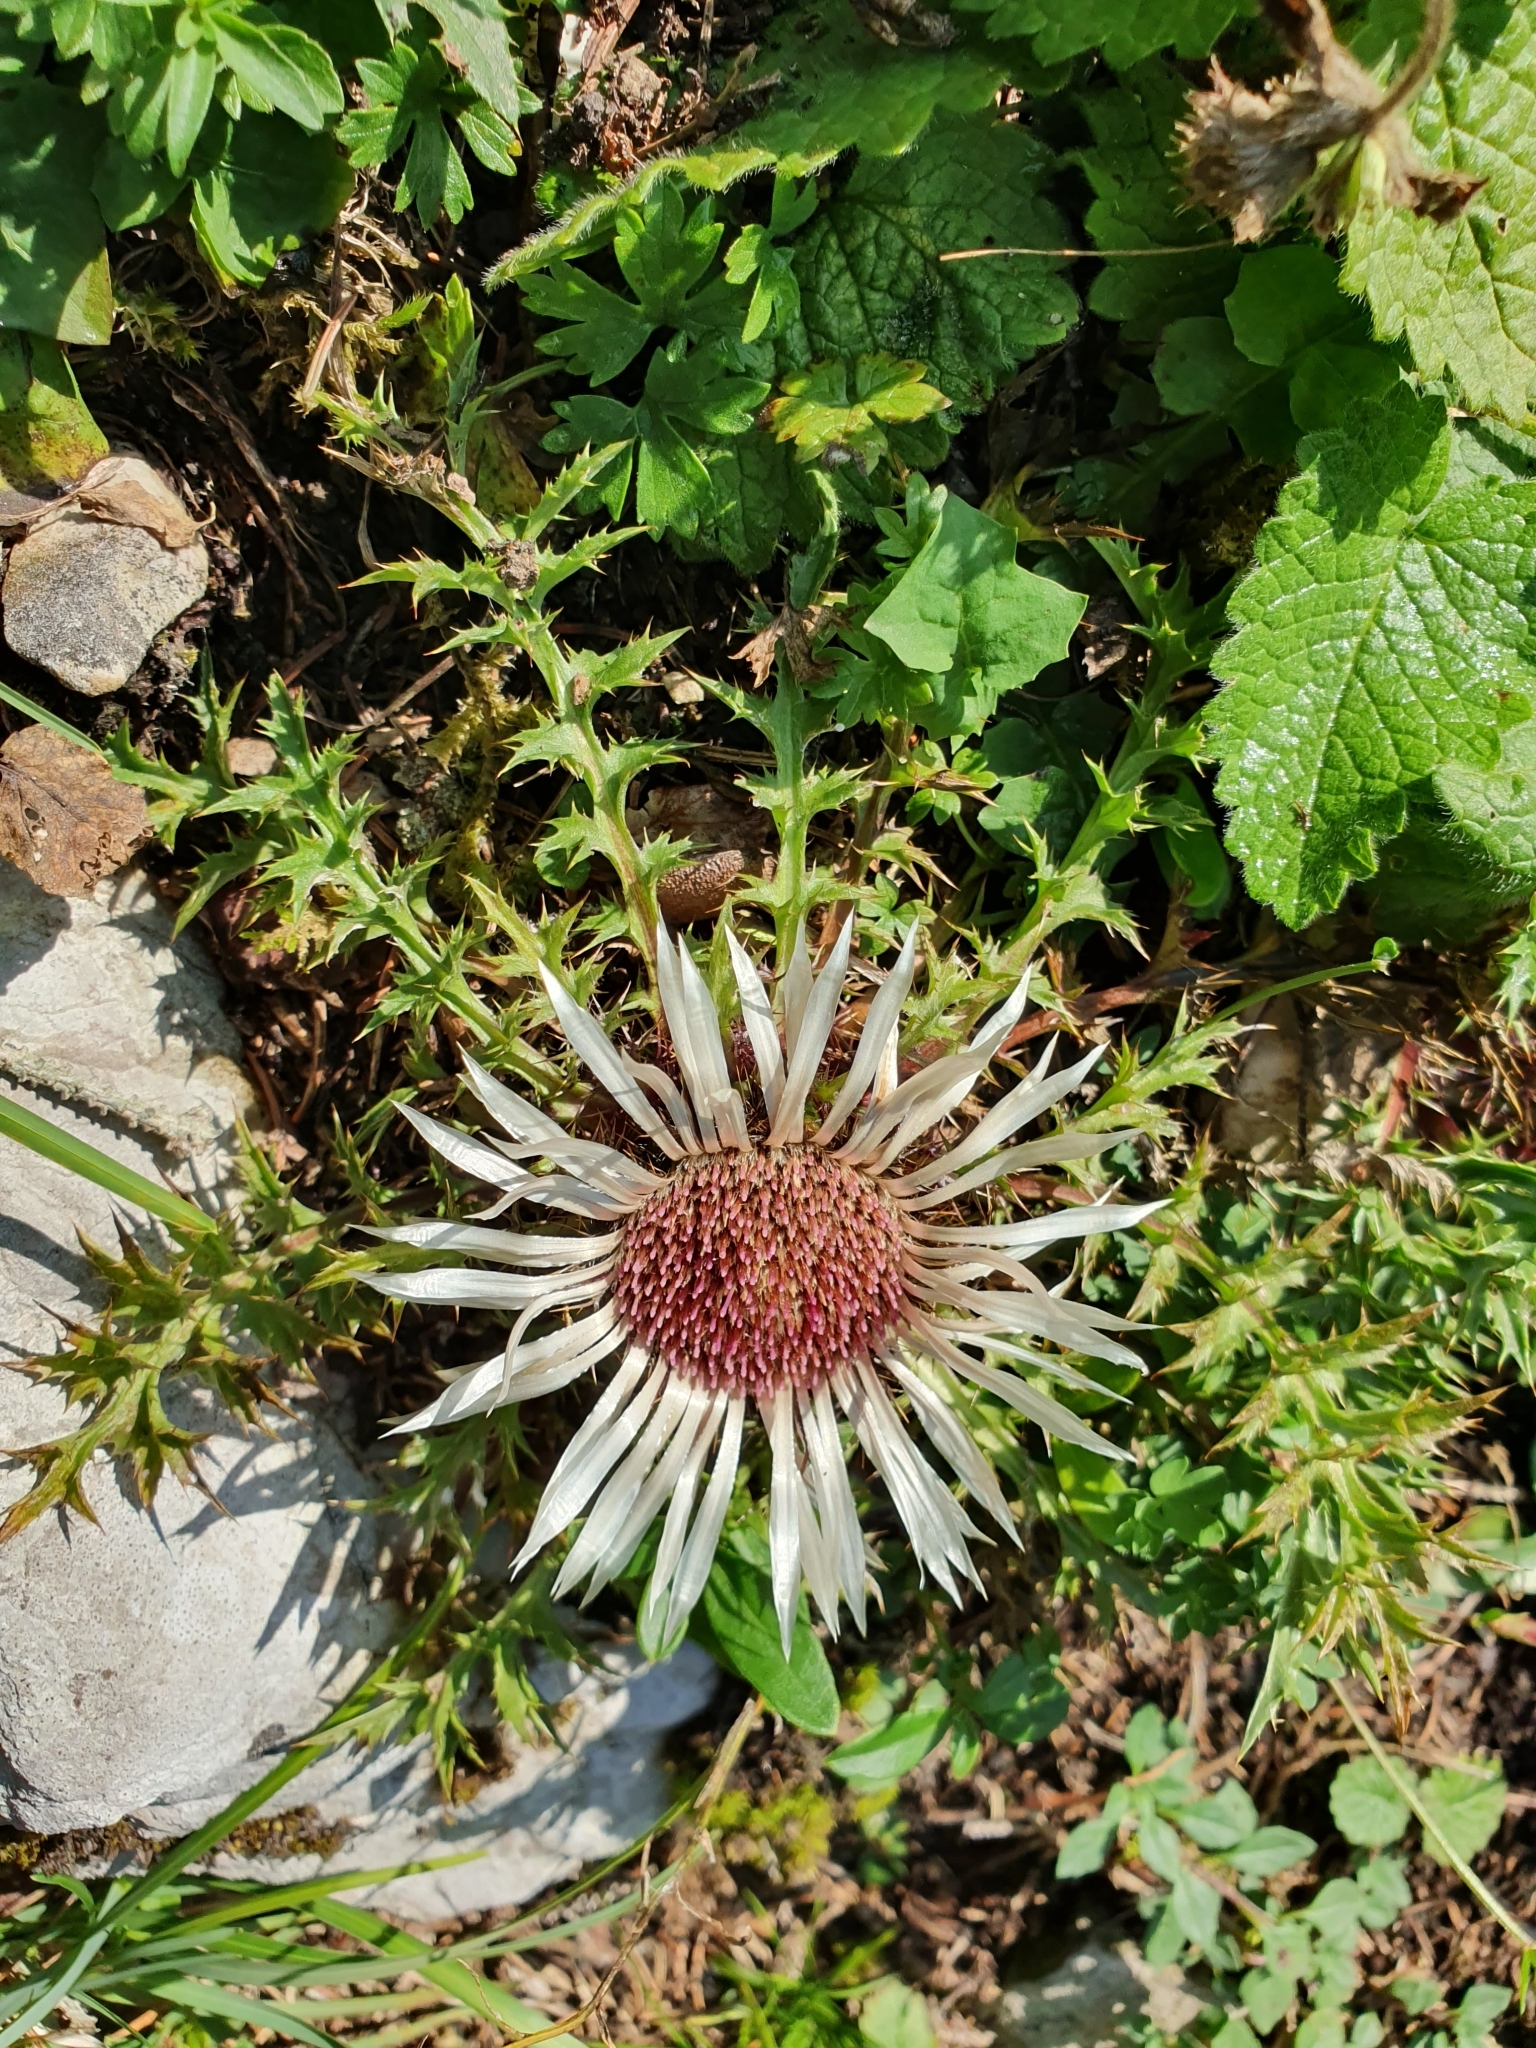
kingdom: Plantae
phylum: Tracheophyta
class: Magnoliopsida
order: Asterales
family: Asteraceae
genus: Carlina
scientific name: Carlina acaulis
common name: Stemless carline thistle
